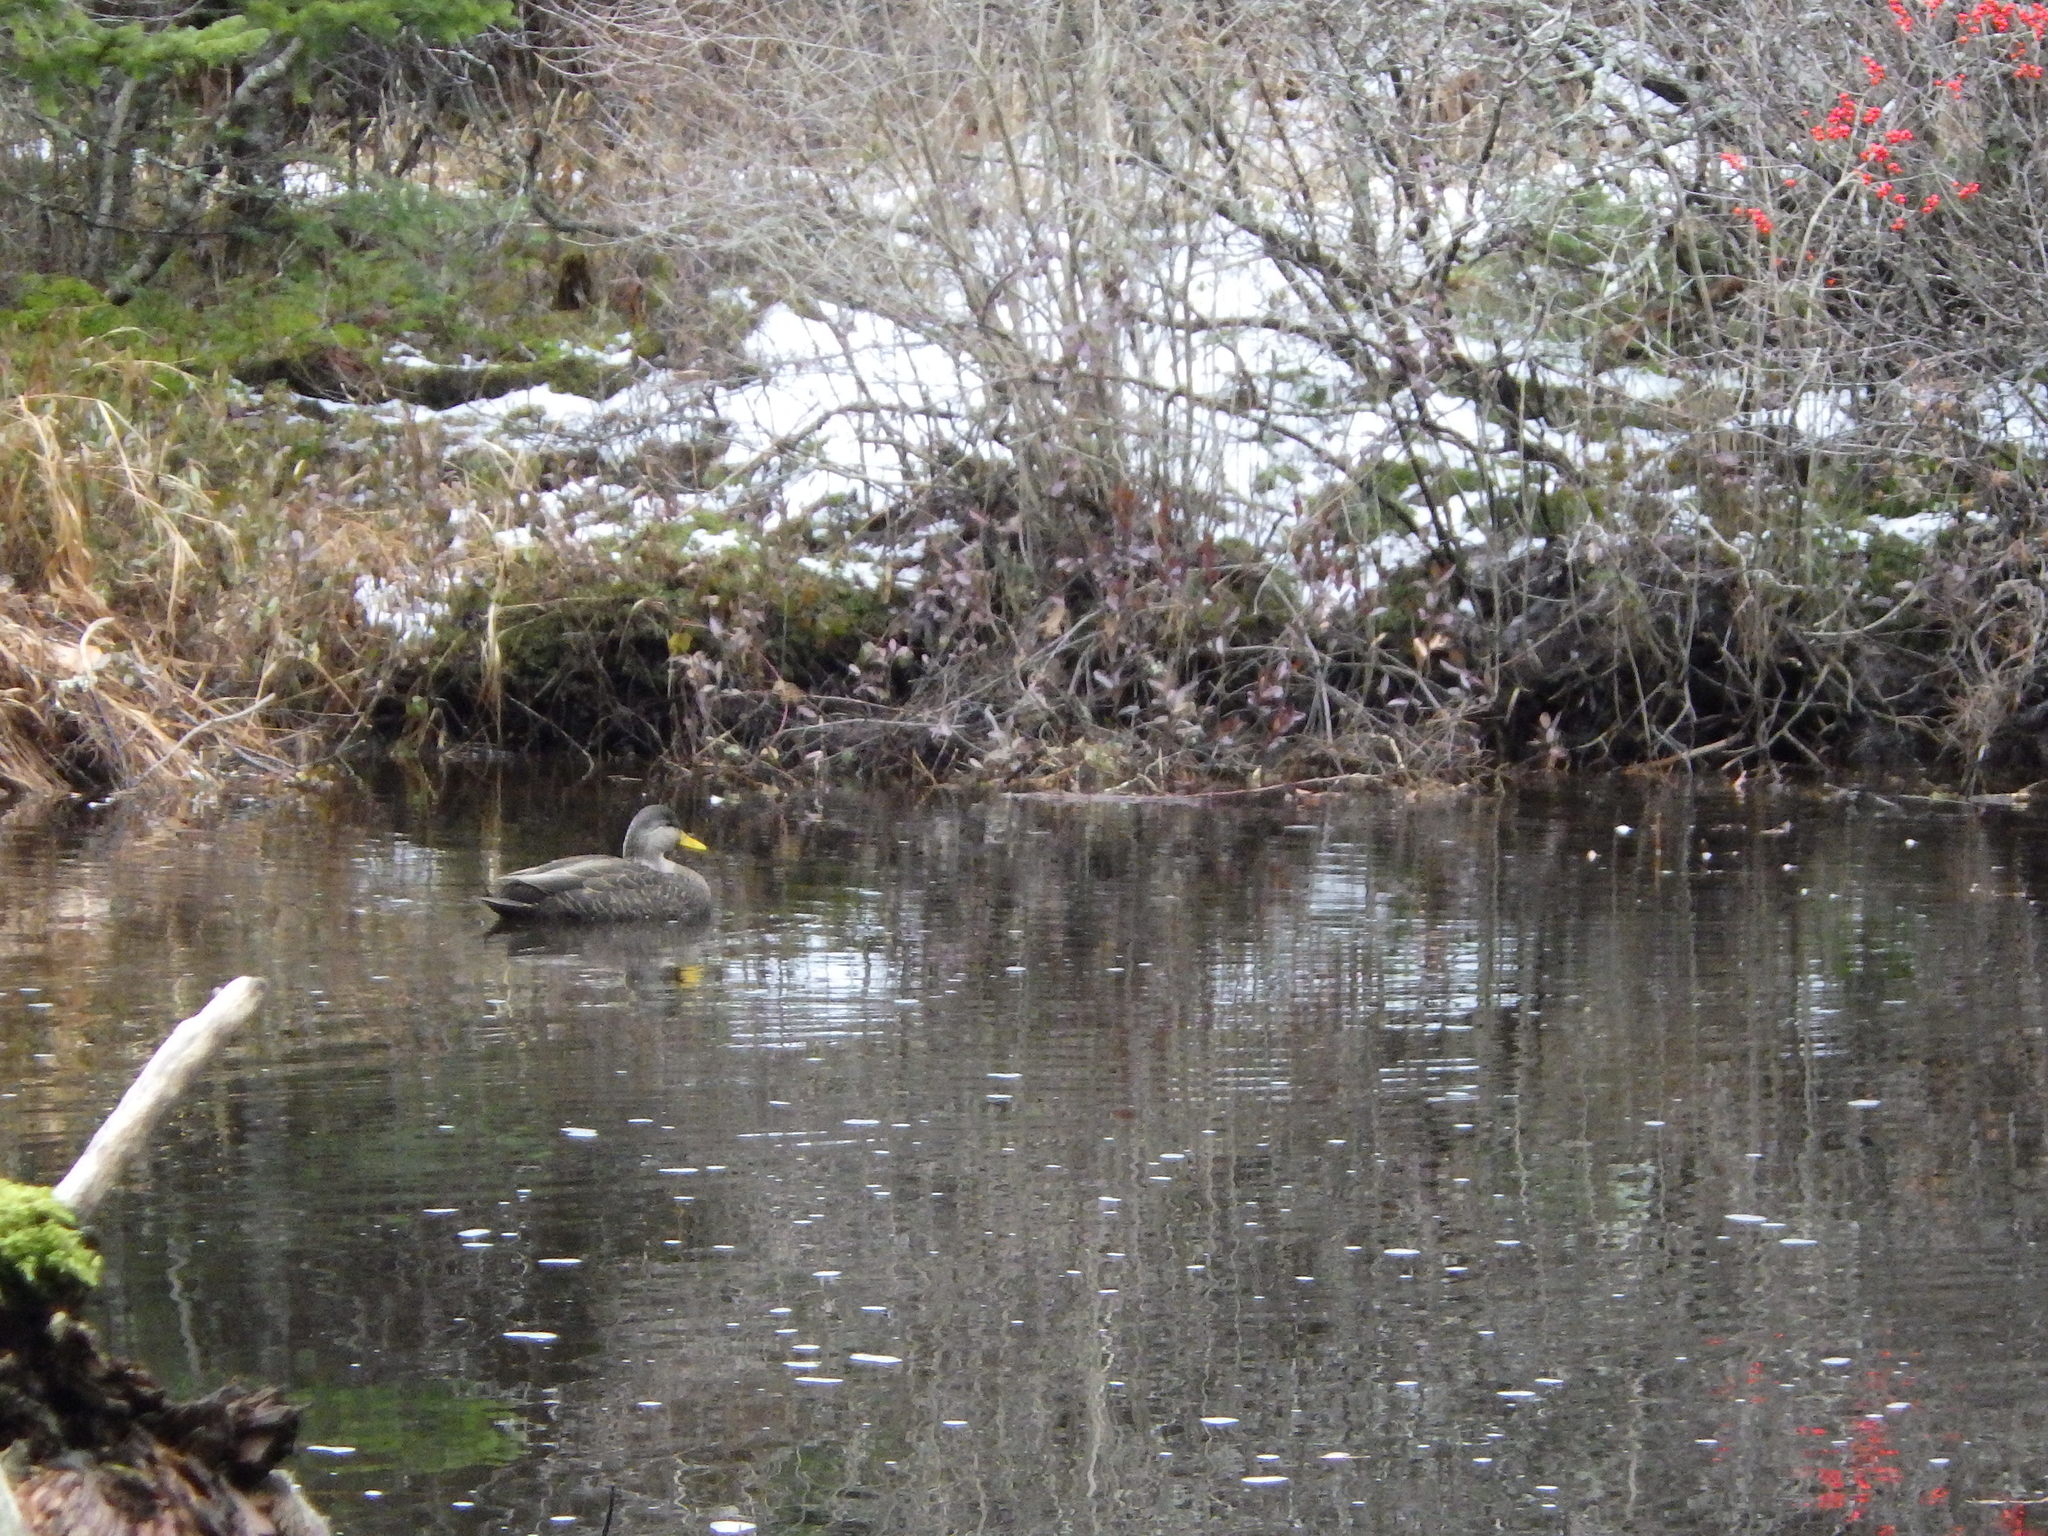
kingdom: Animalia
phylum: Chordata
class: Aves
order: Anseriformes
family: Anatidae
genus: Anas
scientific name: Anas rubripes
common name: American black duck
